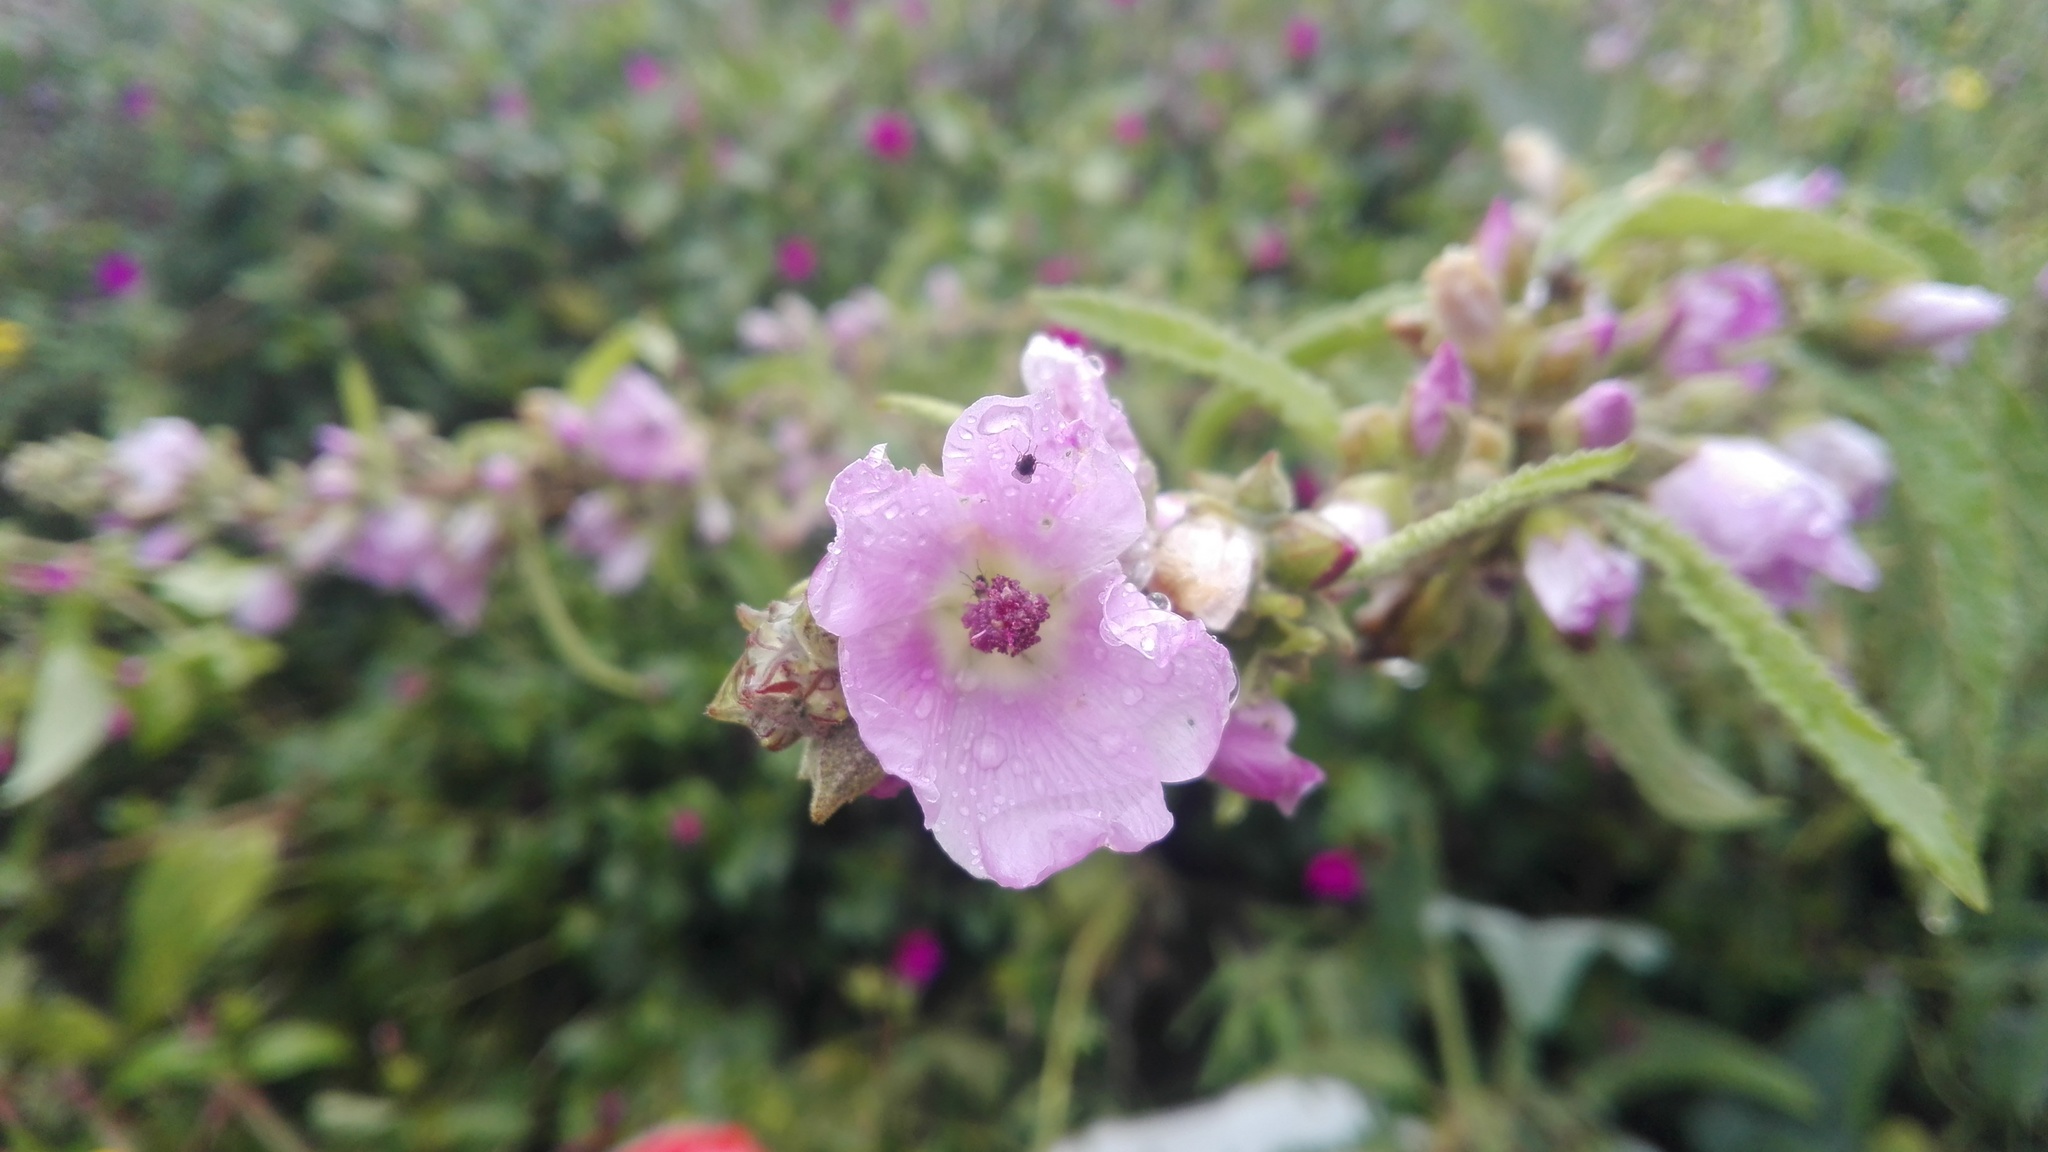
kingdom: Plantae
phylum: Tracheophyta
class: Magnoliopsida
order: Malvales
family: Malvaceae
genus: Sphaeralcea
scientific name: Sphaeralcea angustifolia
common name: Copper globe-mallow
